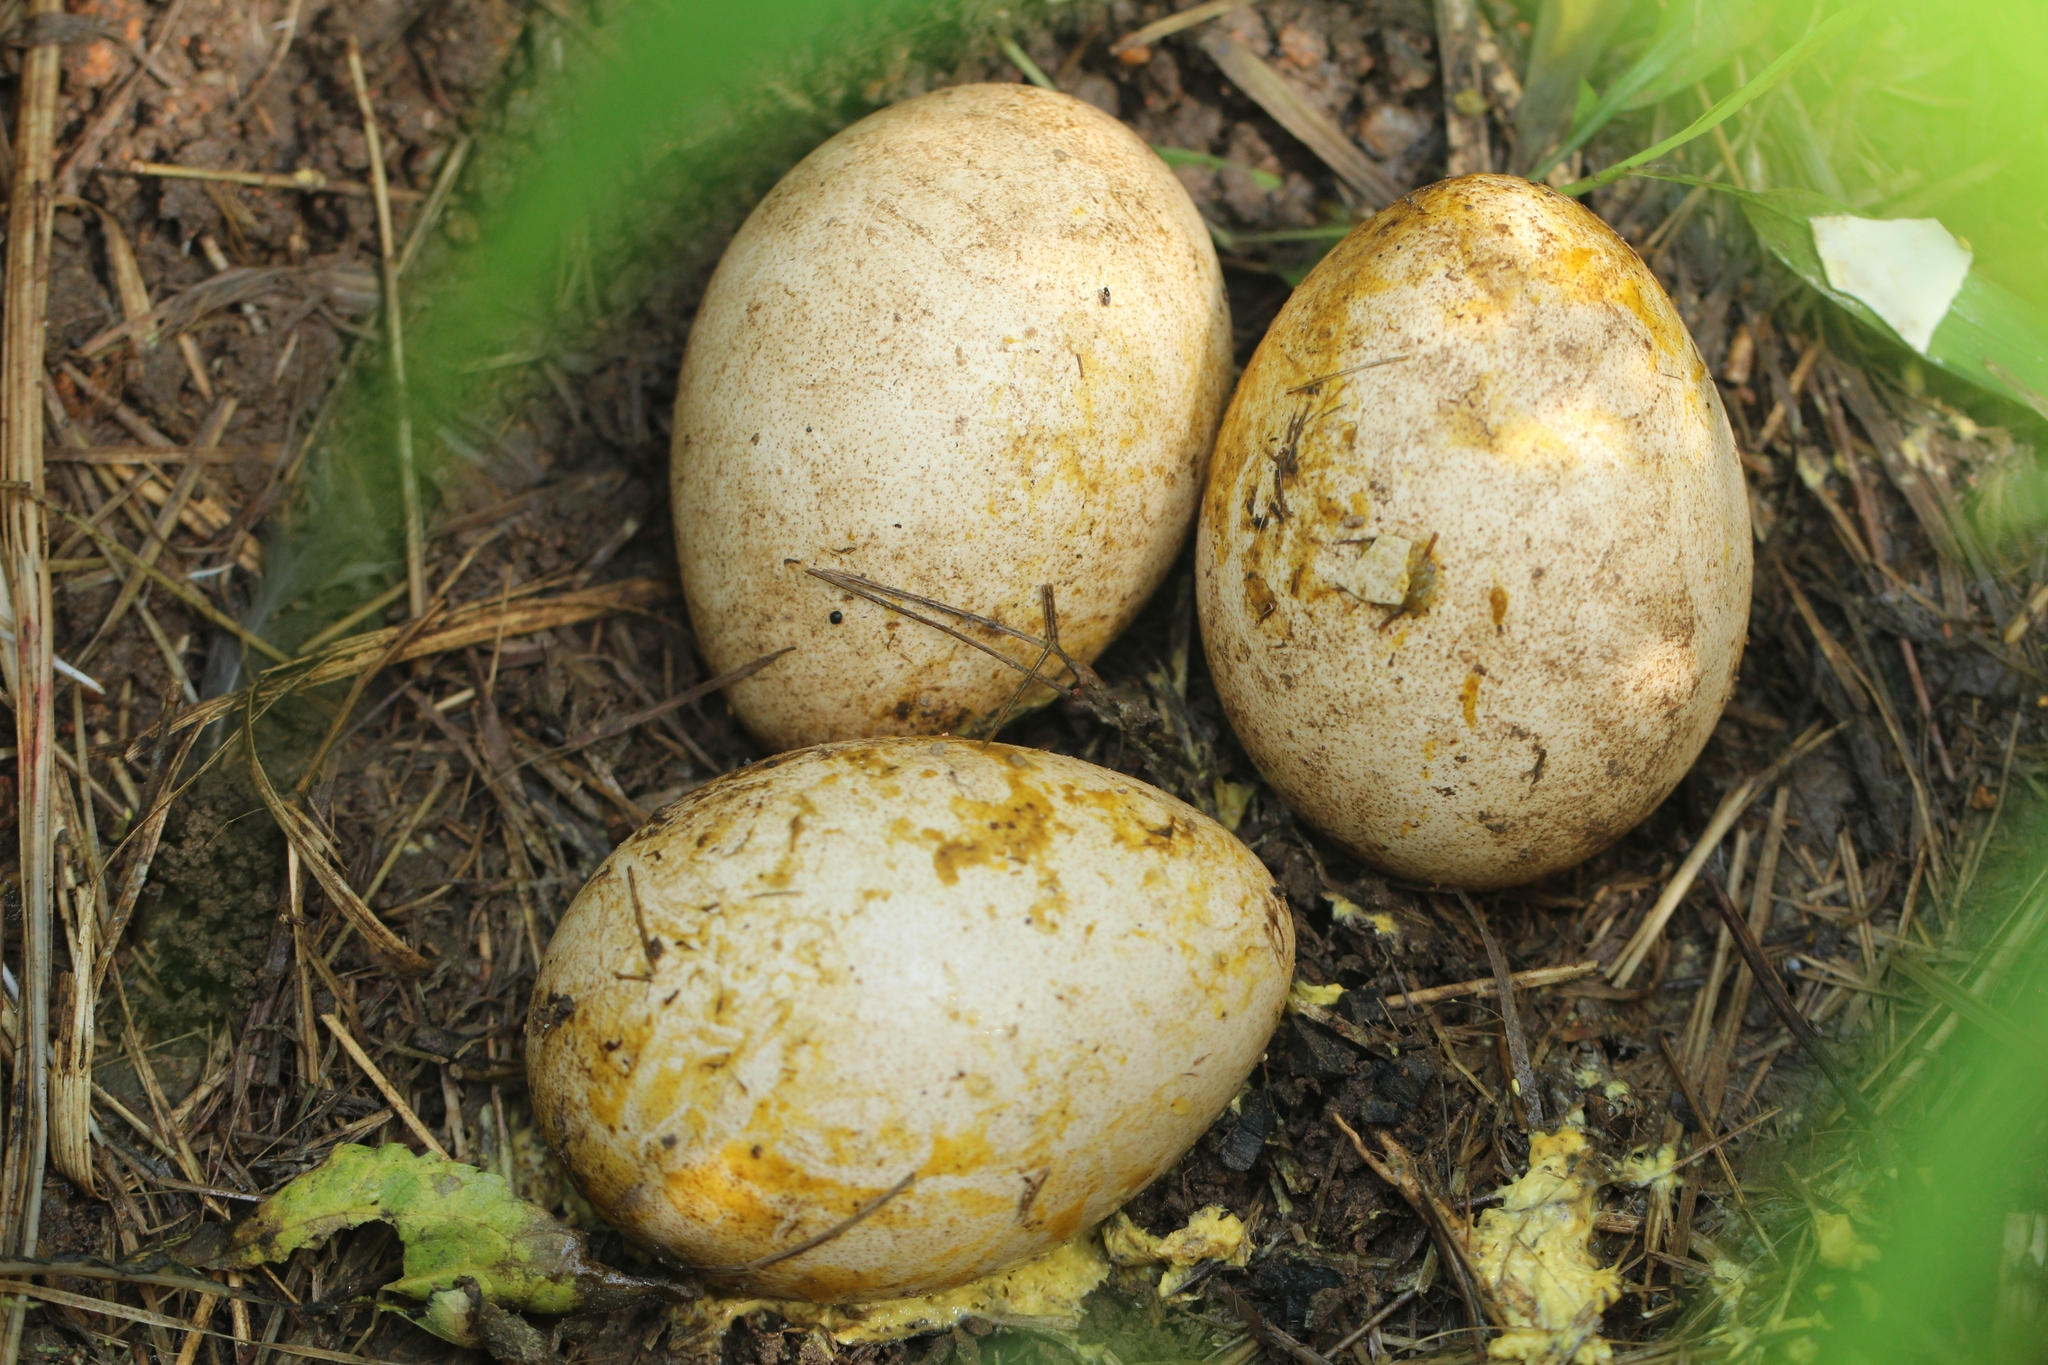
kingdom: Animalia
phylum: Chordata
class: Aves
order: Galliformes
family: Phasianidae
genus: Pavo
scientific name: Pavo cristatus
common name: Indian peafowl
